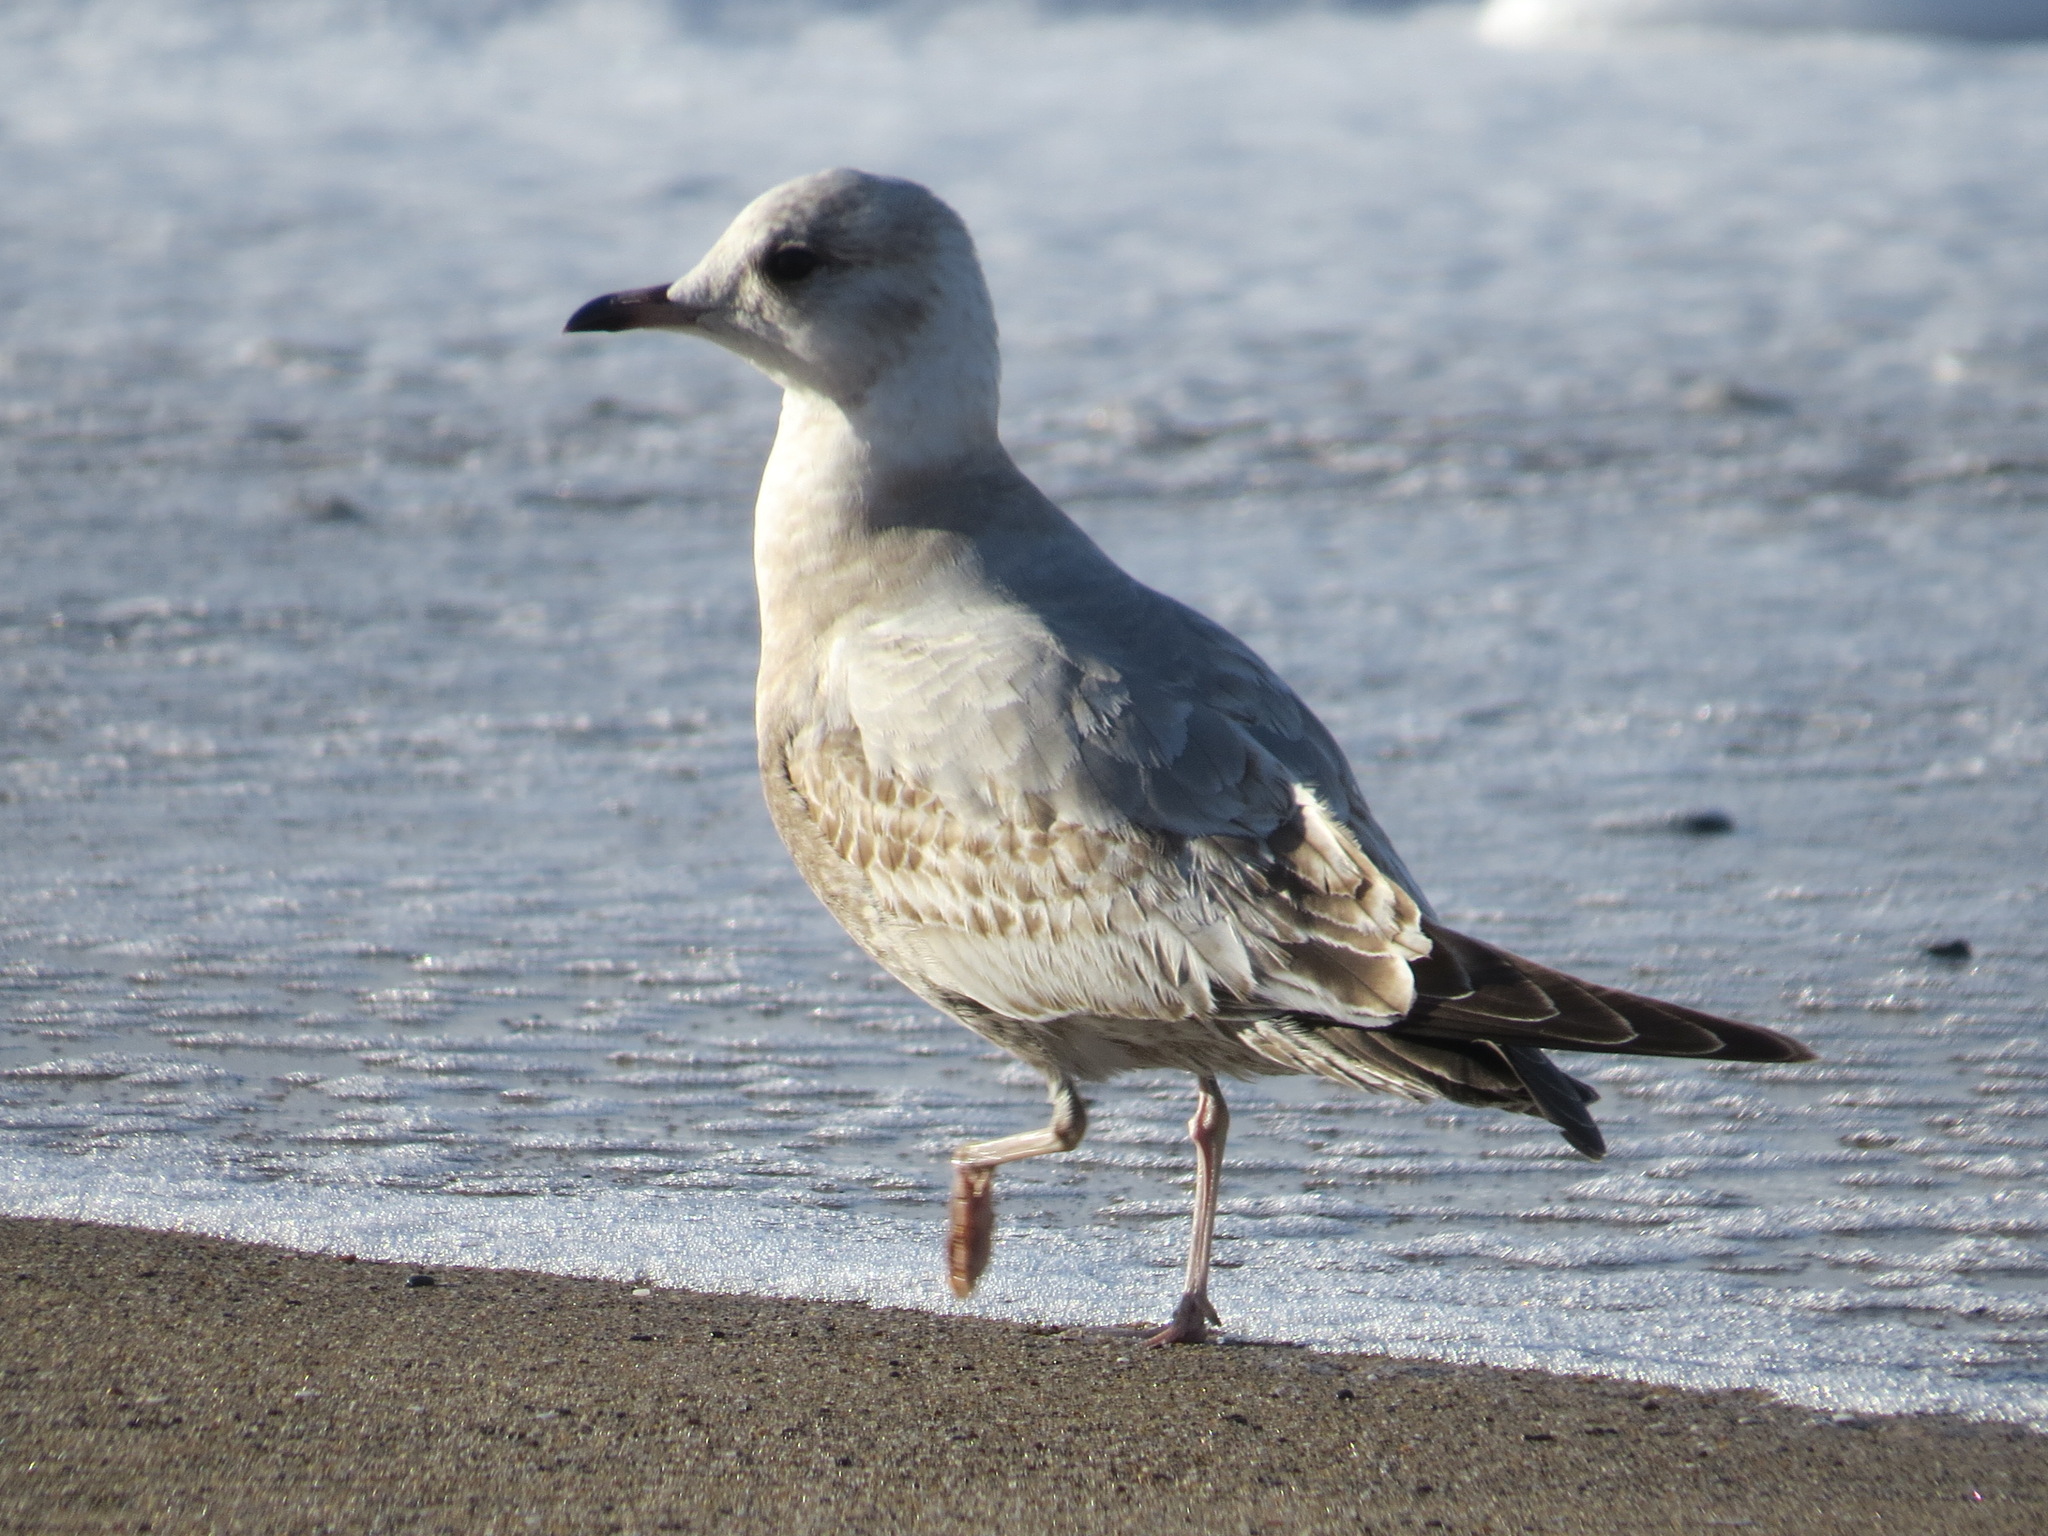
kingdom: Animalia
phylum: Chordata
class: Aves
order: Charadriiformes
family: Laridae
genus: Larus
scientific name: Larus brachyrhynchus
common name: Short-billed gull
